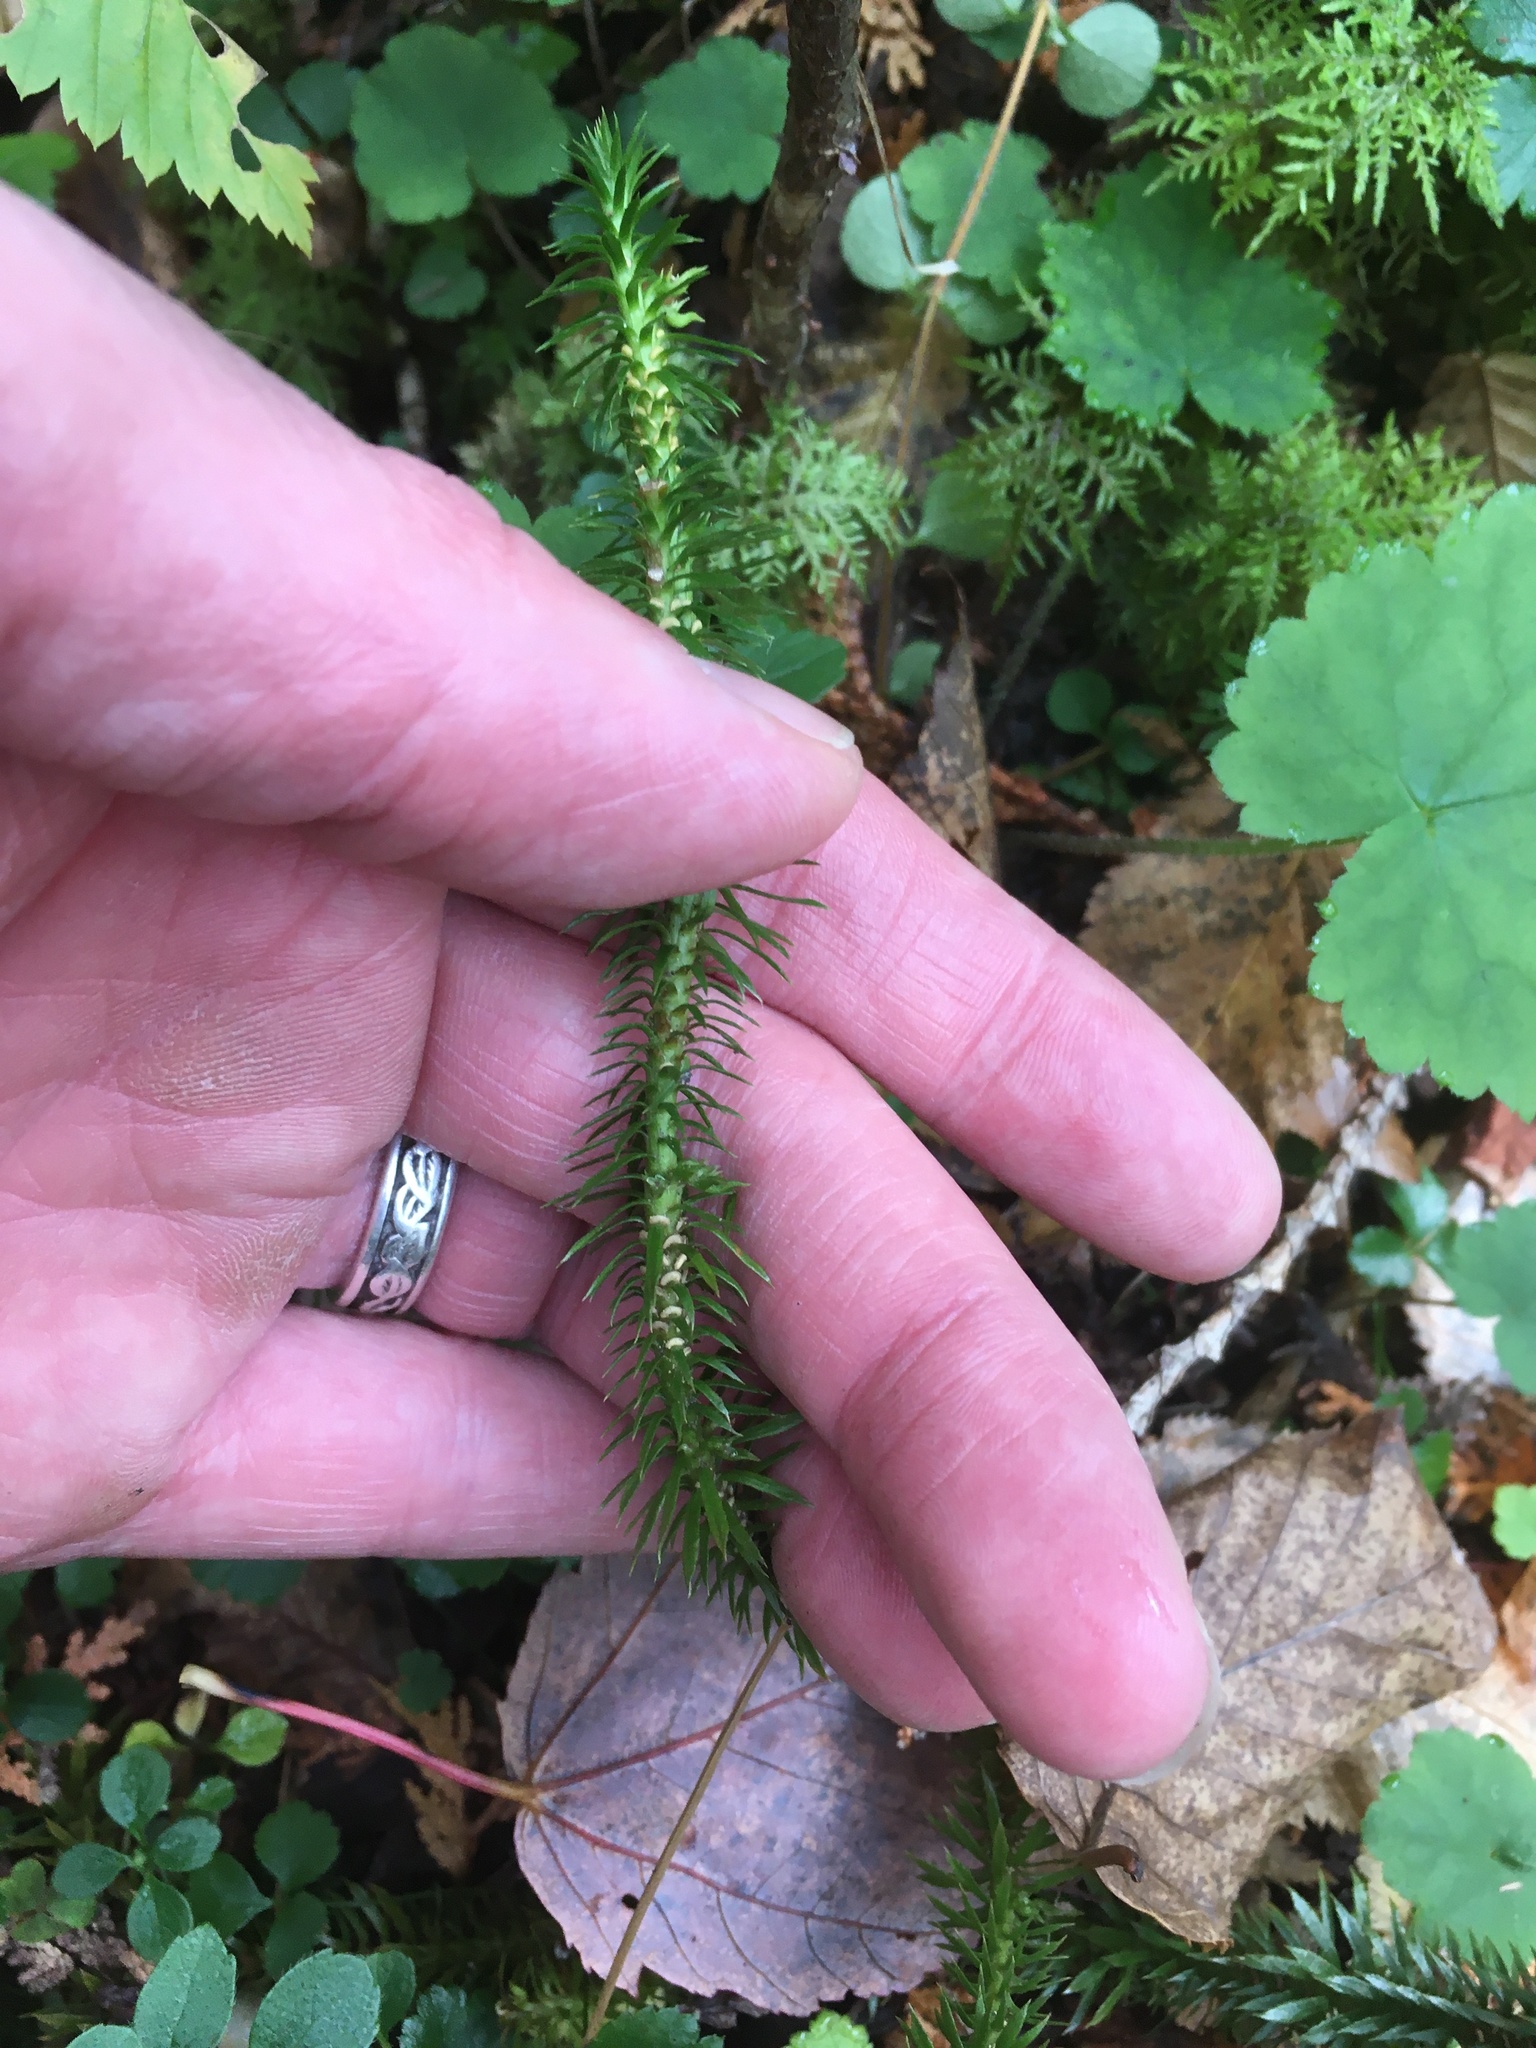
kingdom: Plantae
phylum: Tracheophyta
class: Lycopodiopsida
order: Lycopodiales
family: Lycopodiaceae
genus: Huperzia
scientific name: Huperzia lucidula
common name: Shining clubmoss
